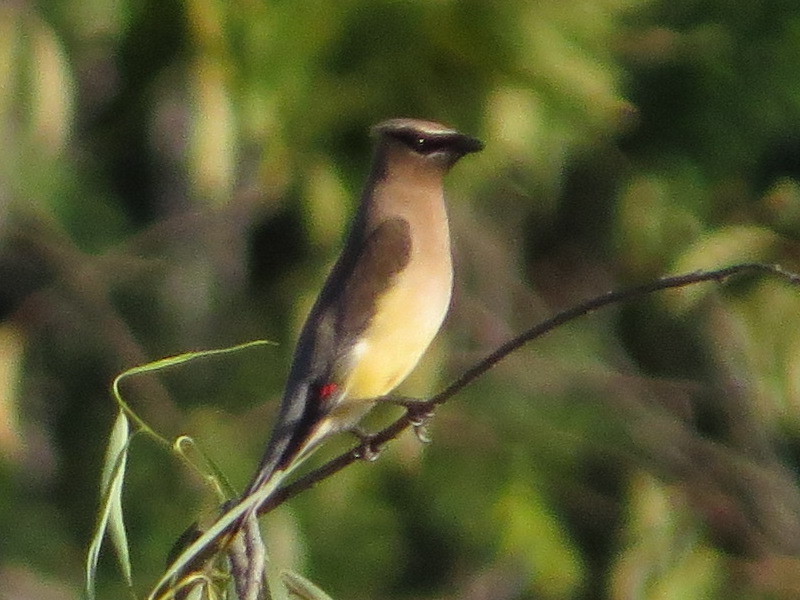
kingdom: Animalia
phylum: Chordata
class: Aves
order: Passeriformes
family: Bombycillidae
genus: Bombycilla
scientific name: Bombycilla cedrorum
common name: Cedar waxwing
